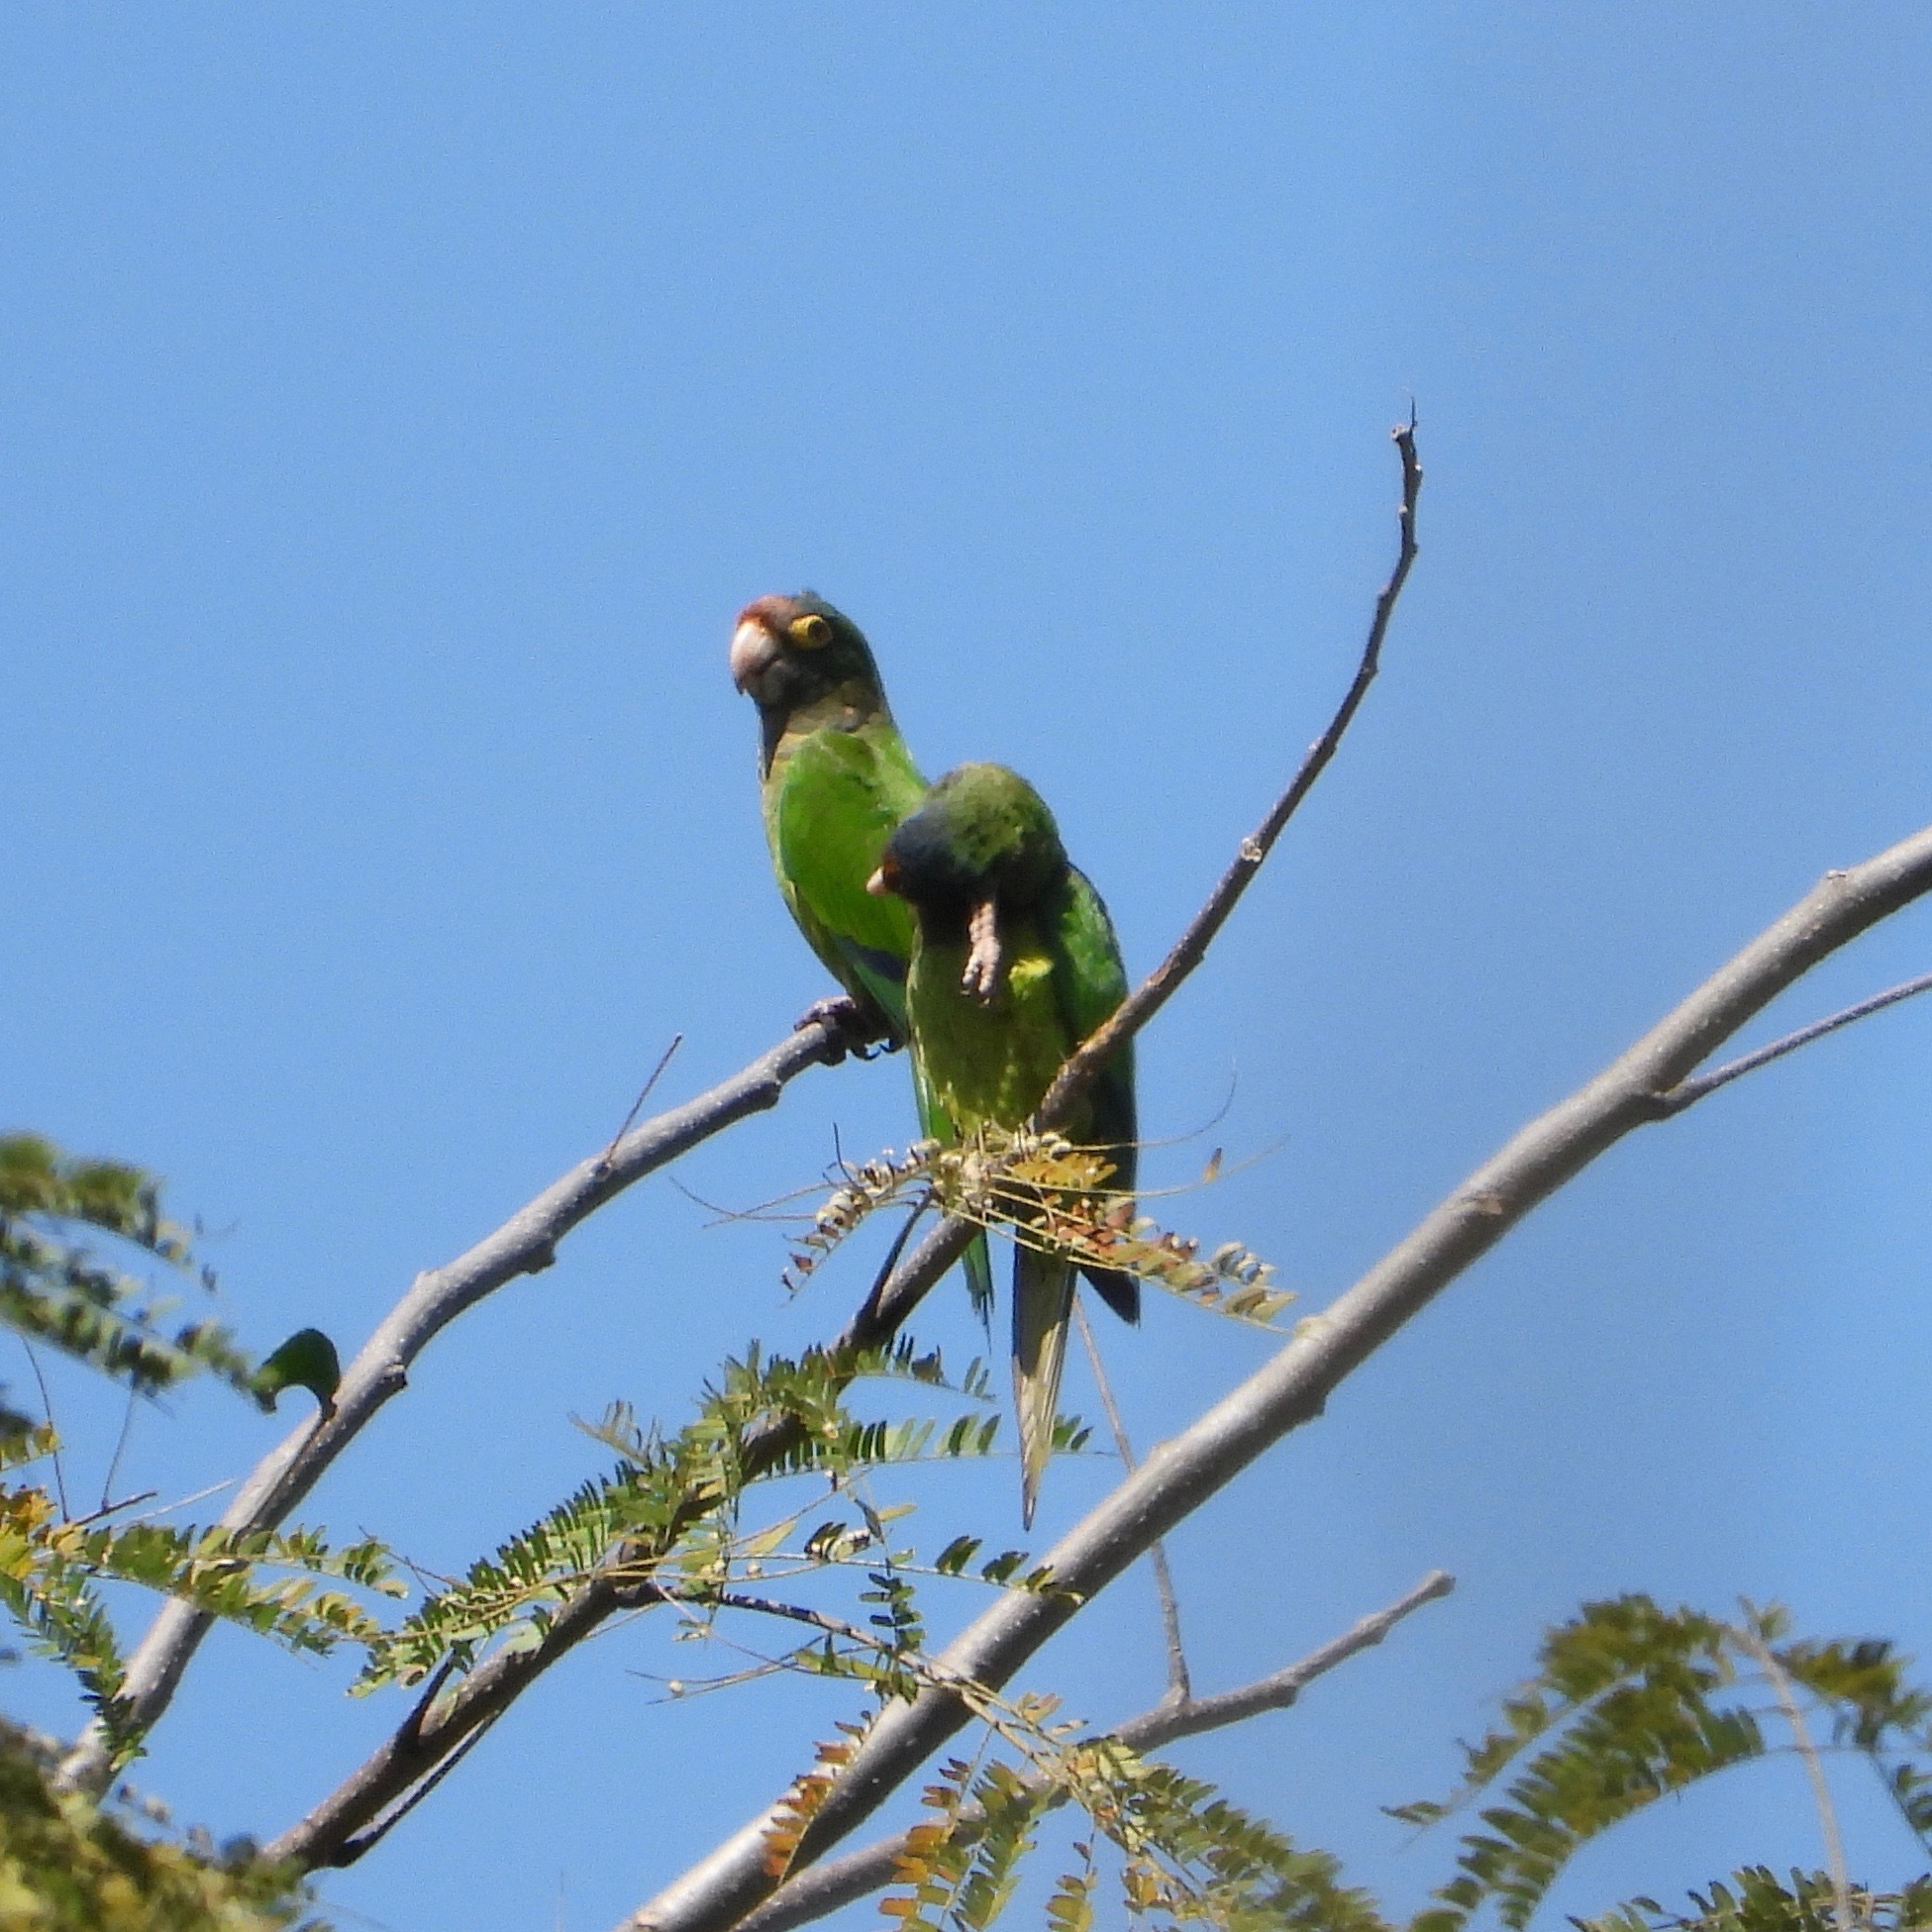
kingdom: Animalia
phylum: Chordata
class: Aves
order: Psittaciformes
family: Psittacidae
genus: Aratinga
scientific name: Aratinga canicularis
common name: Orange-fronted parakeet
